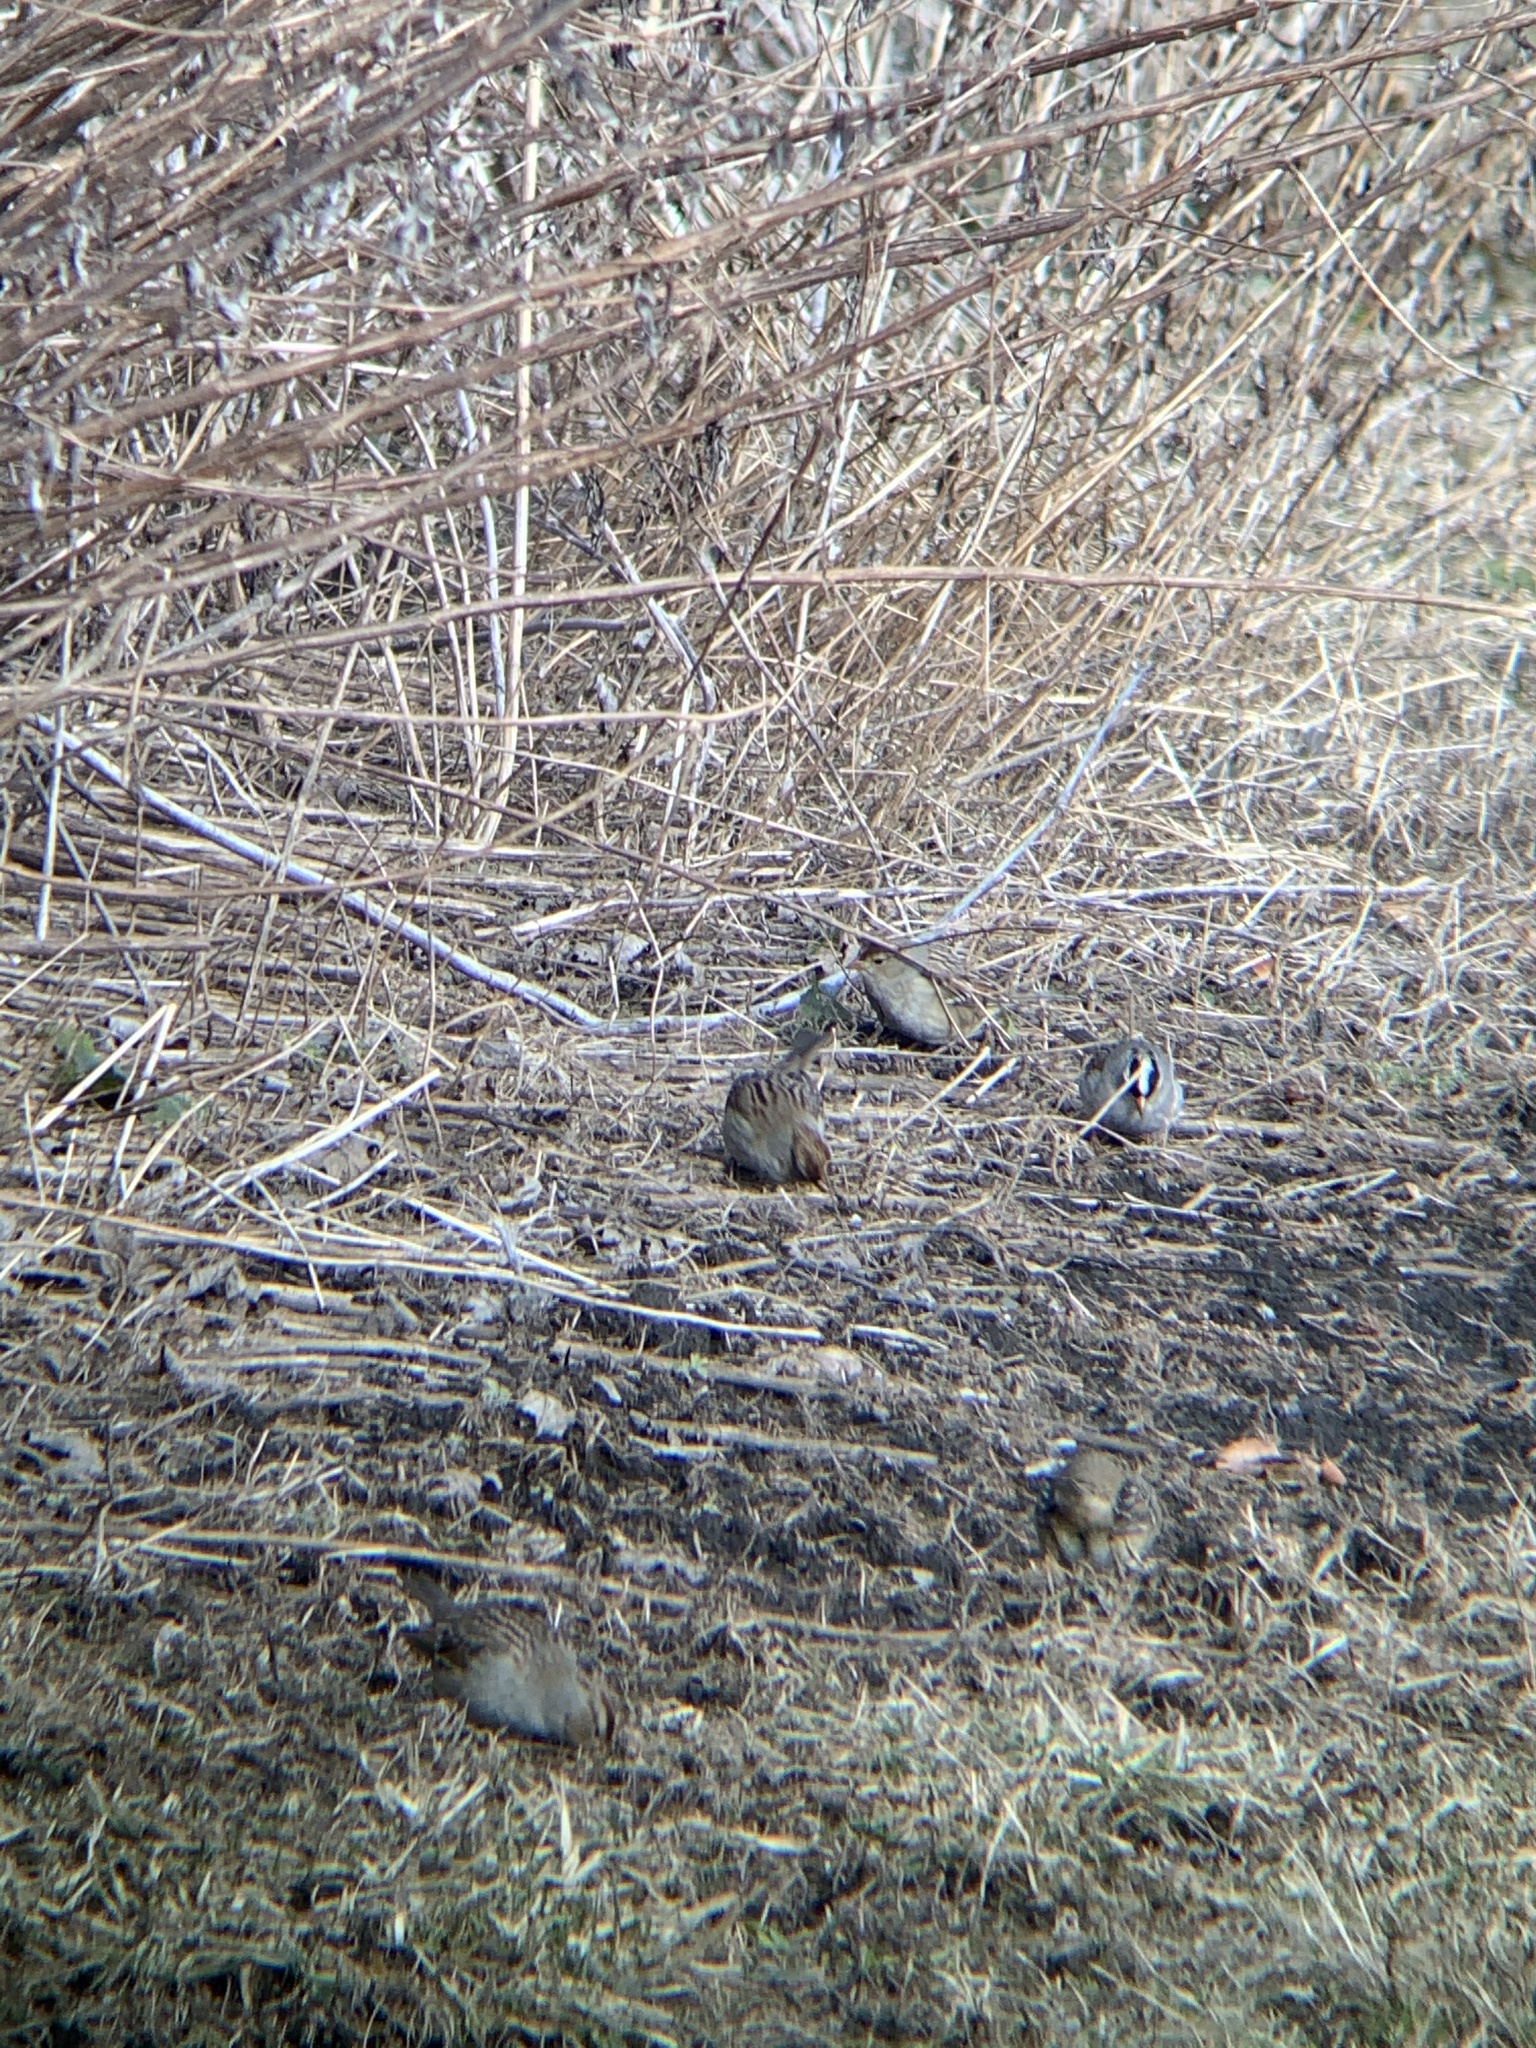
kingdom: Animalia
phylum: Chordata
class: Aves
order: Passeriformes
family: Passerellidae
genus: Zonotrichia
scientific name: Zonotrichia leucophrys
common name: White-crowned sparrow
